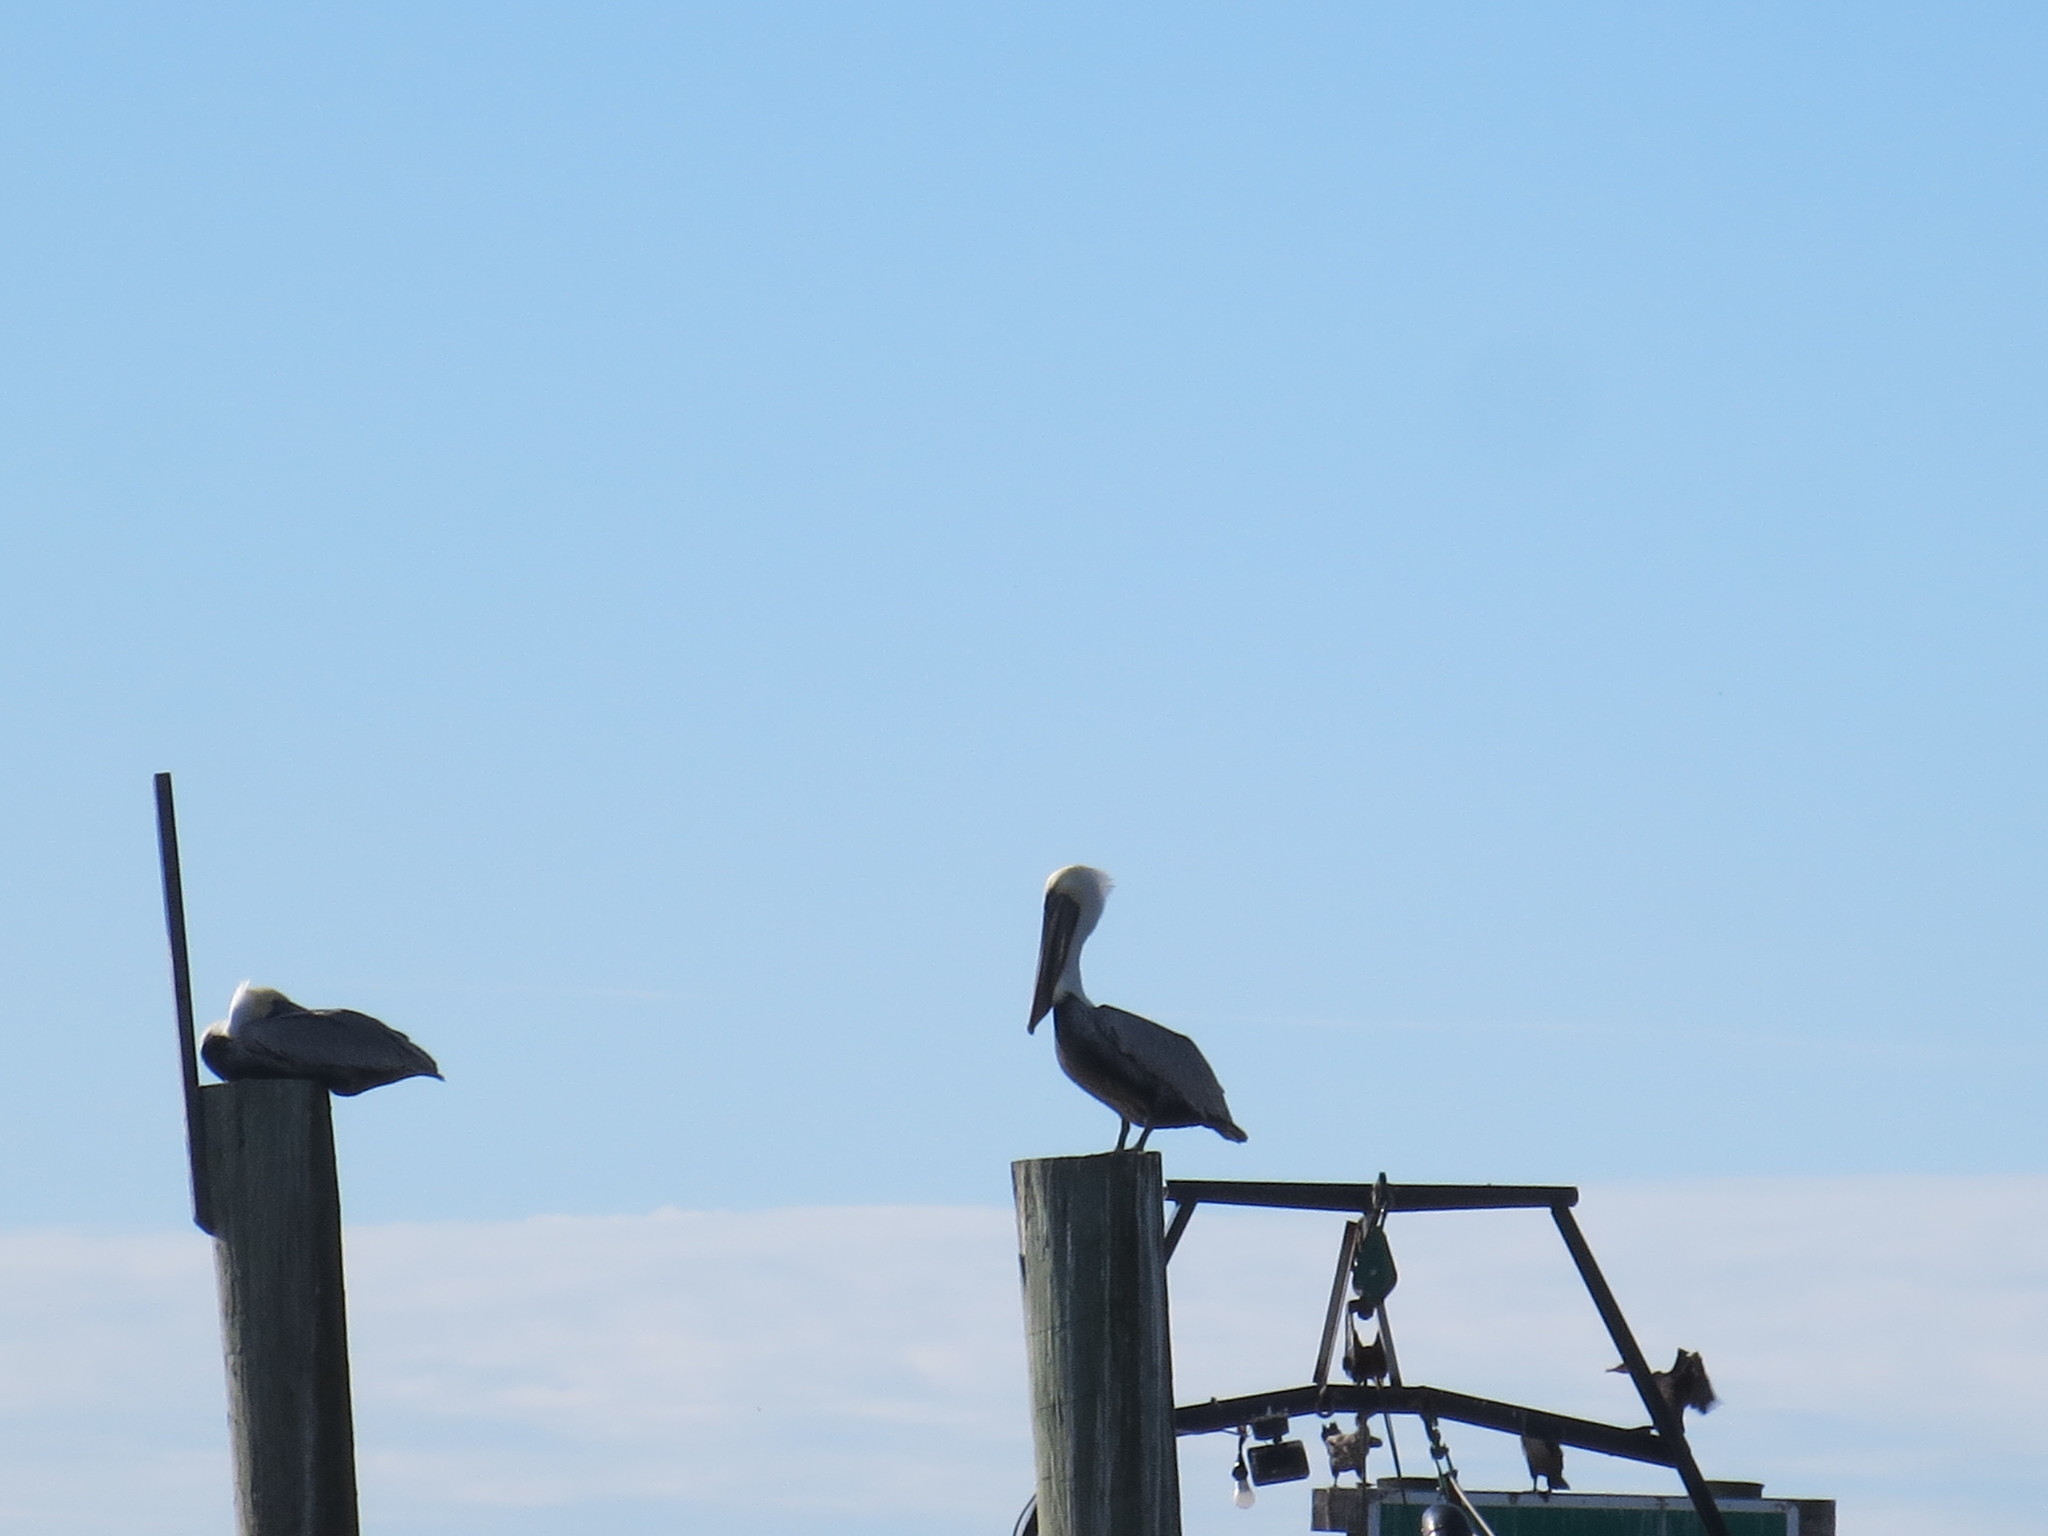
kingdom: Animalia
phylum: Chordata
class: Aves
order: Pelecaniformes
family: Pelecanidae
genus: Pelecanus
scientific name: Pelecanus occidentalis
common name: Brown pelican
